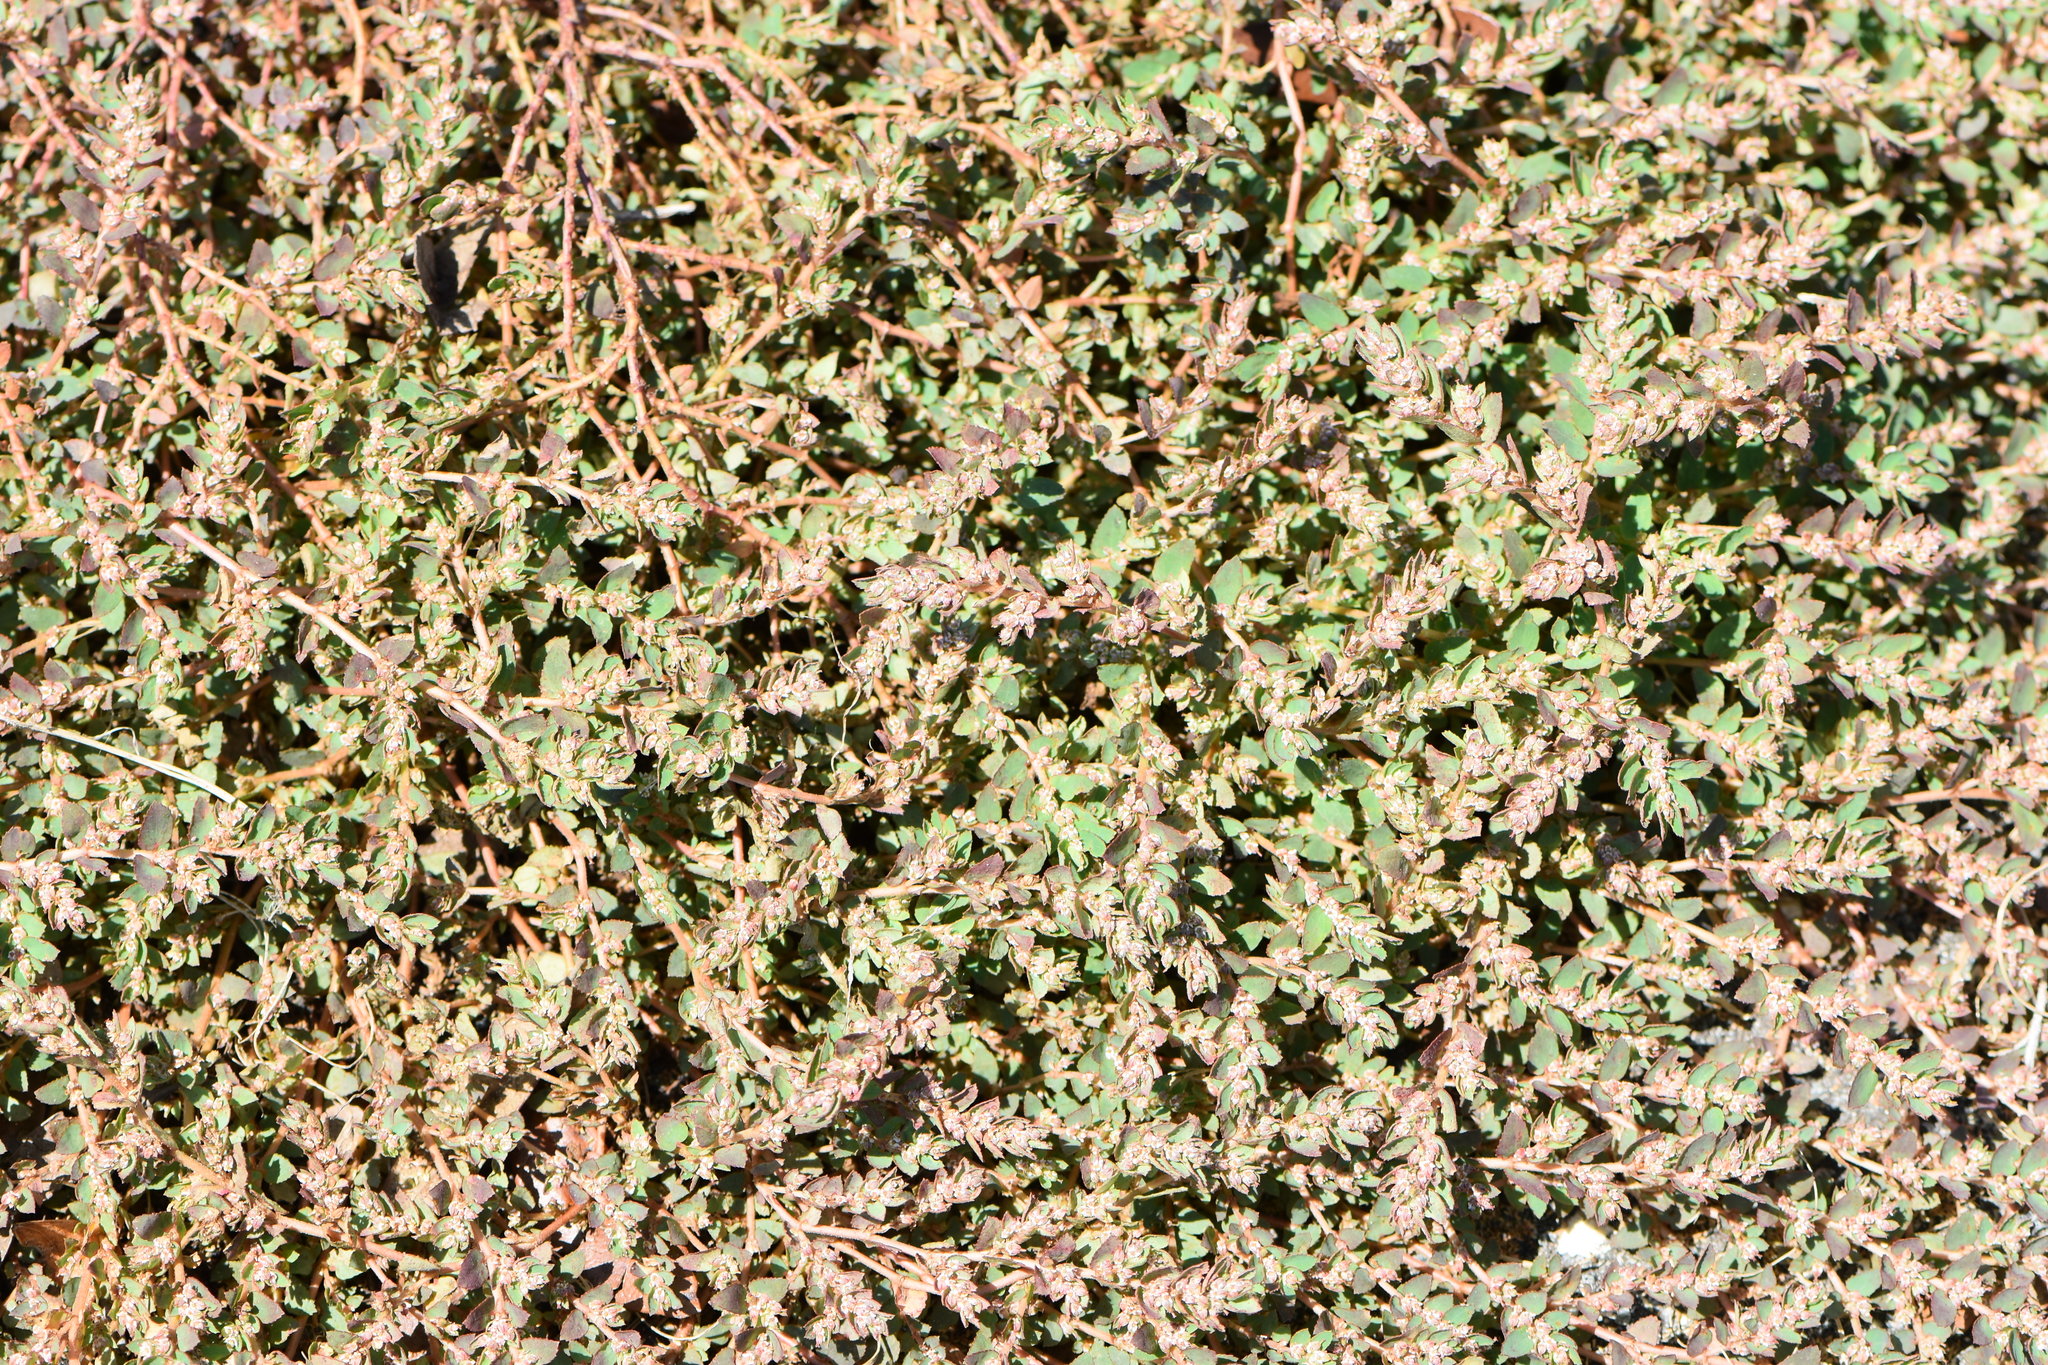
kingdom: Plantae
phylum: Tracheophyta
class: Magnoliopsida
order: Malpighiales
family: Euphorbiaceae
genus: Euphorbia
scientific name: Euphorbia thymifolia
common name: Gulf sandmat
